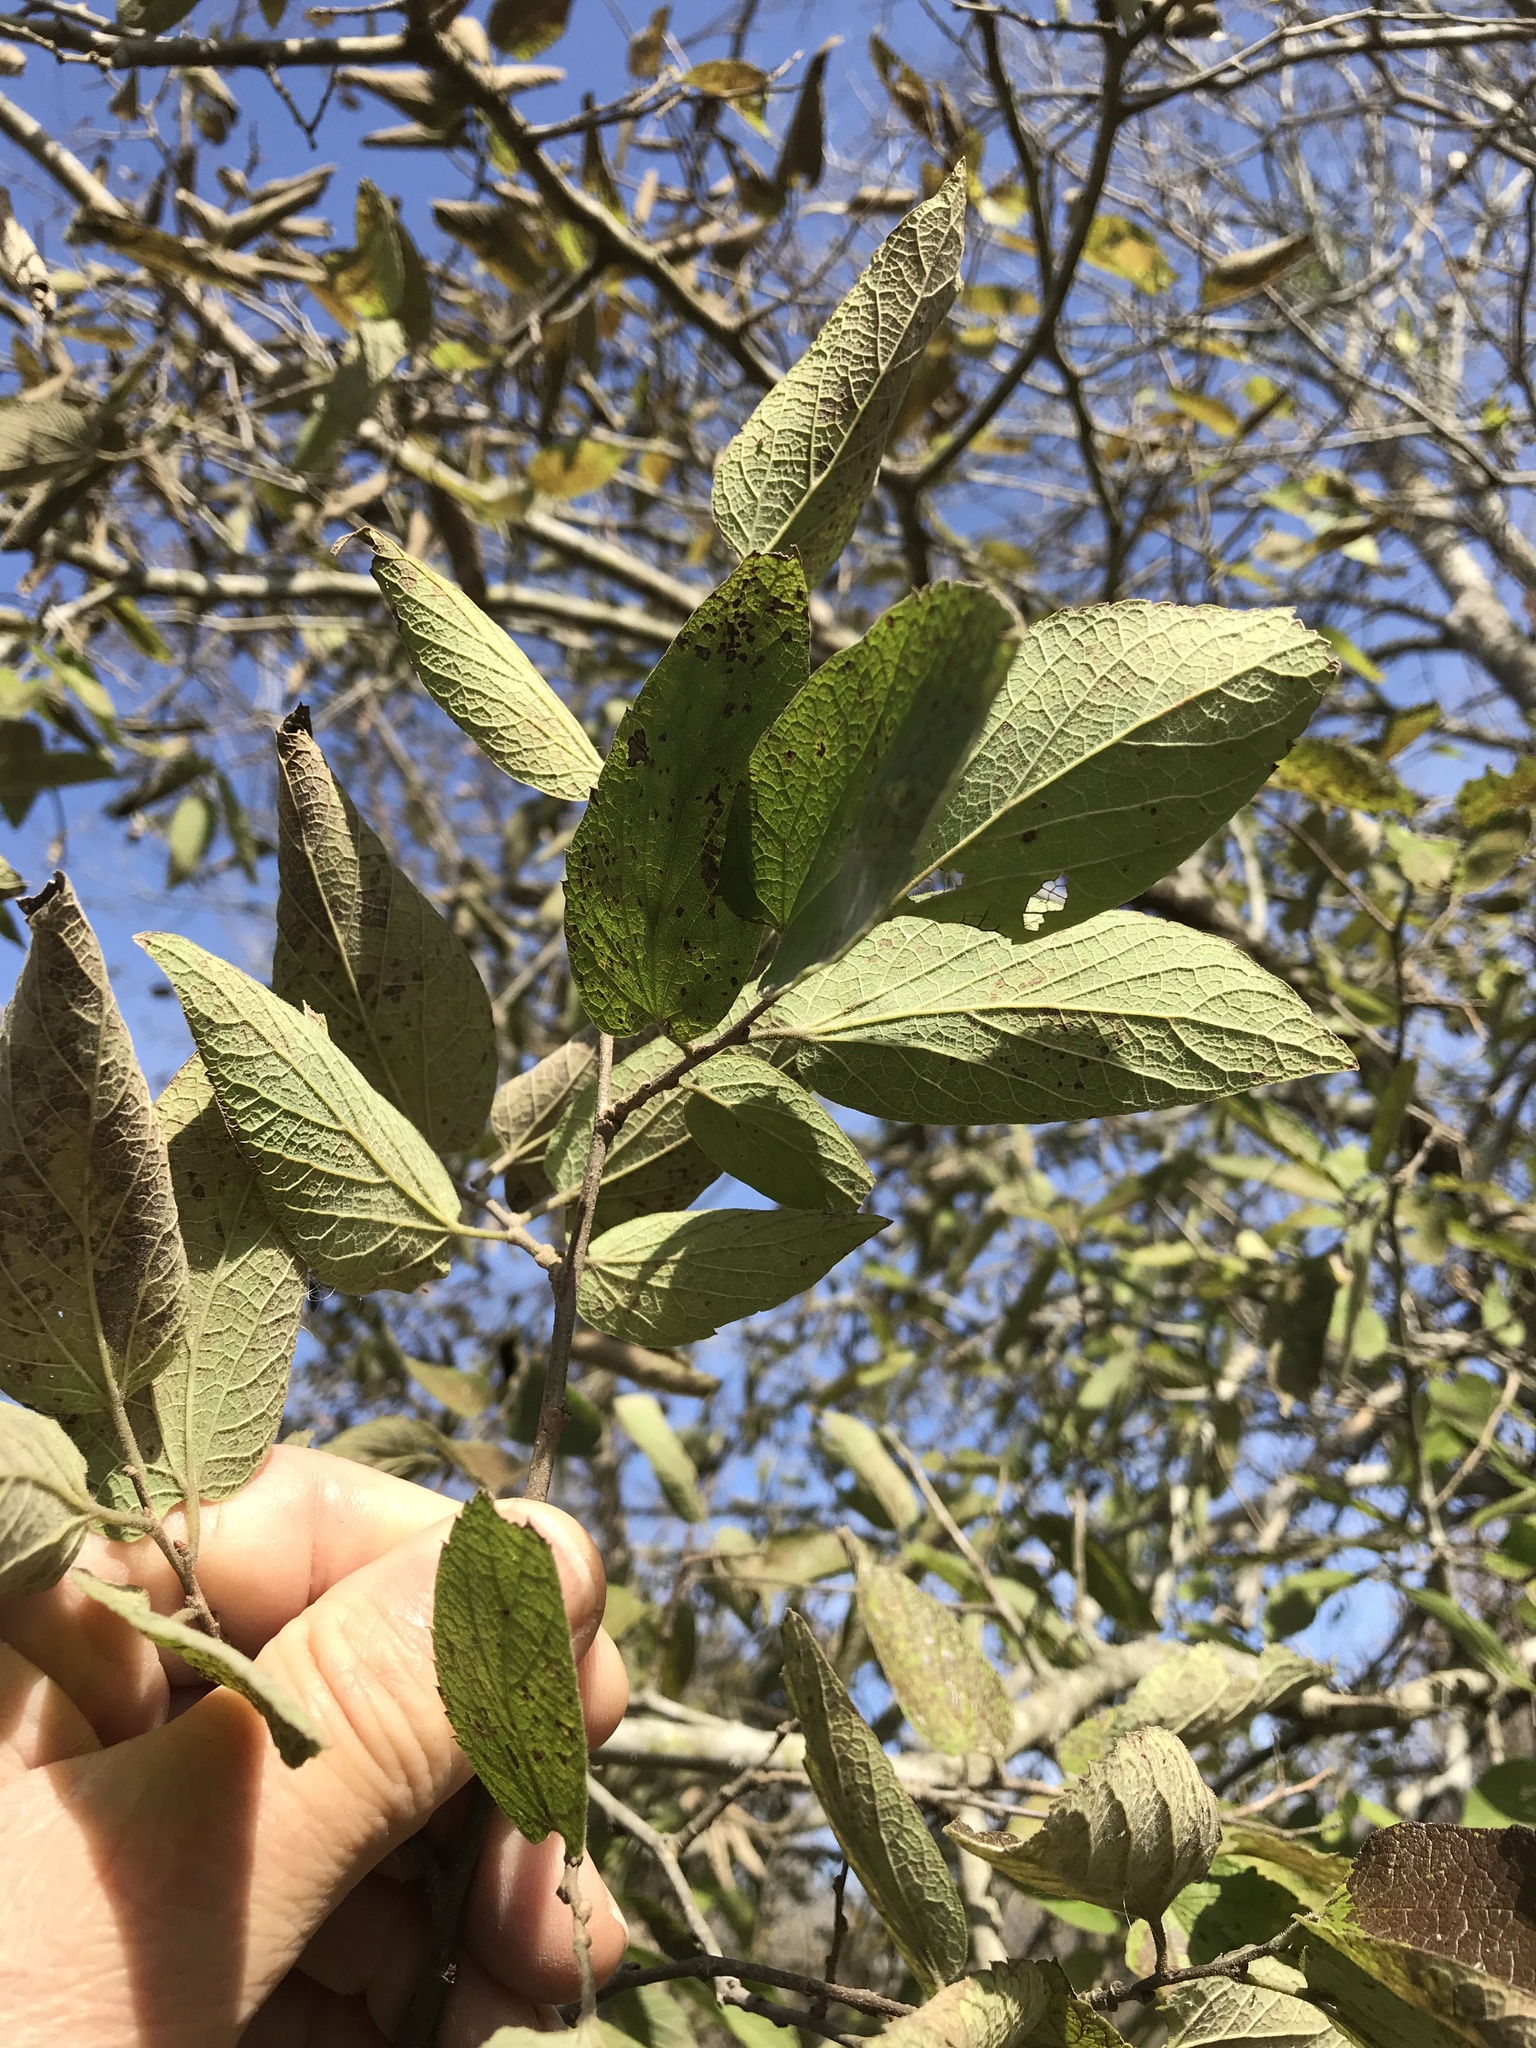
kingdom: Plantae
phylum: Tracheophyta
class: Magnoliopsida
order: Rosales
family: Cannabaceae
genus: Celtis
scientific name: Celtis laevigata
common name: Sugarberry
